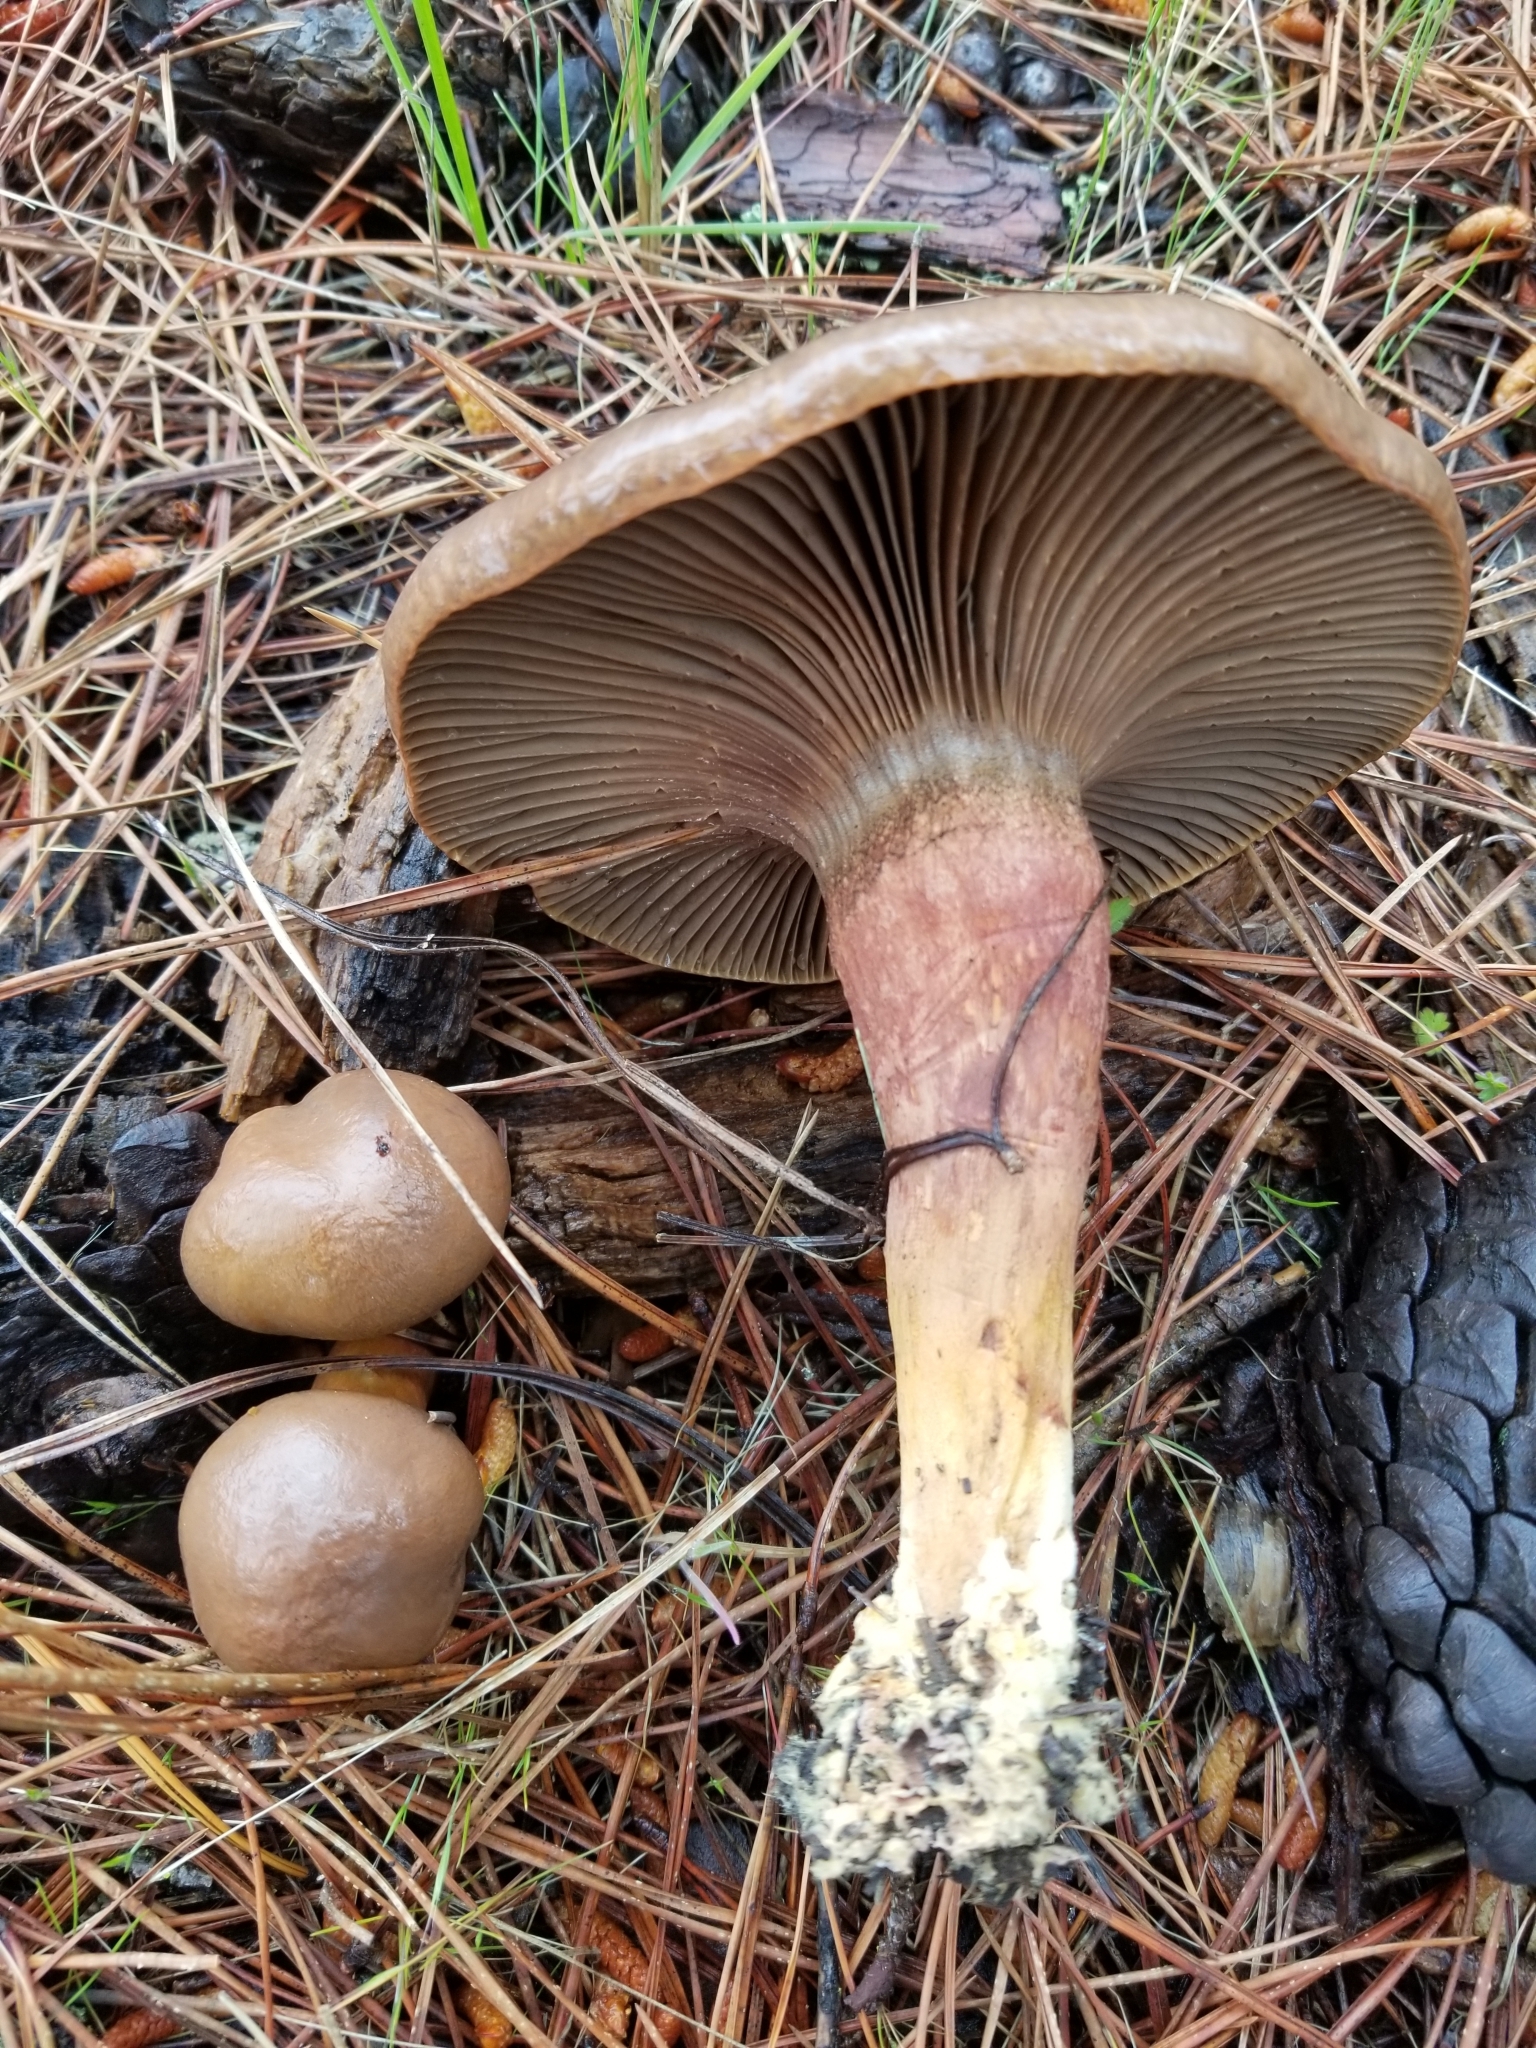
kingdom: Fungi
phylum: Basidiomycota
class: Agaricomycetes
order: Boletales
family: Gomphidiaceae
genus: Chroogomphus
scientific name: Chroogomphus vinicolor
